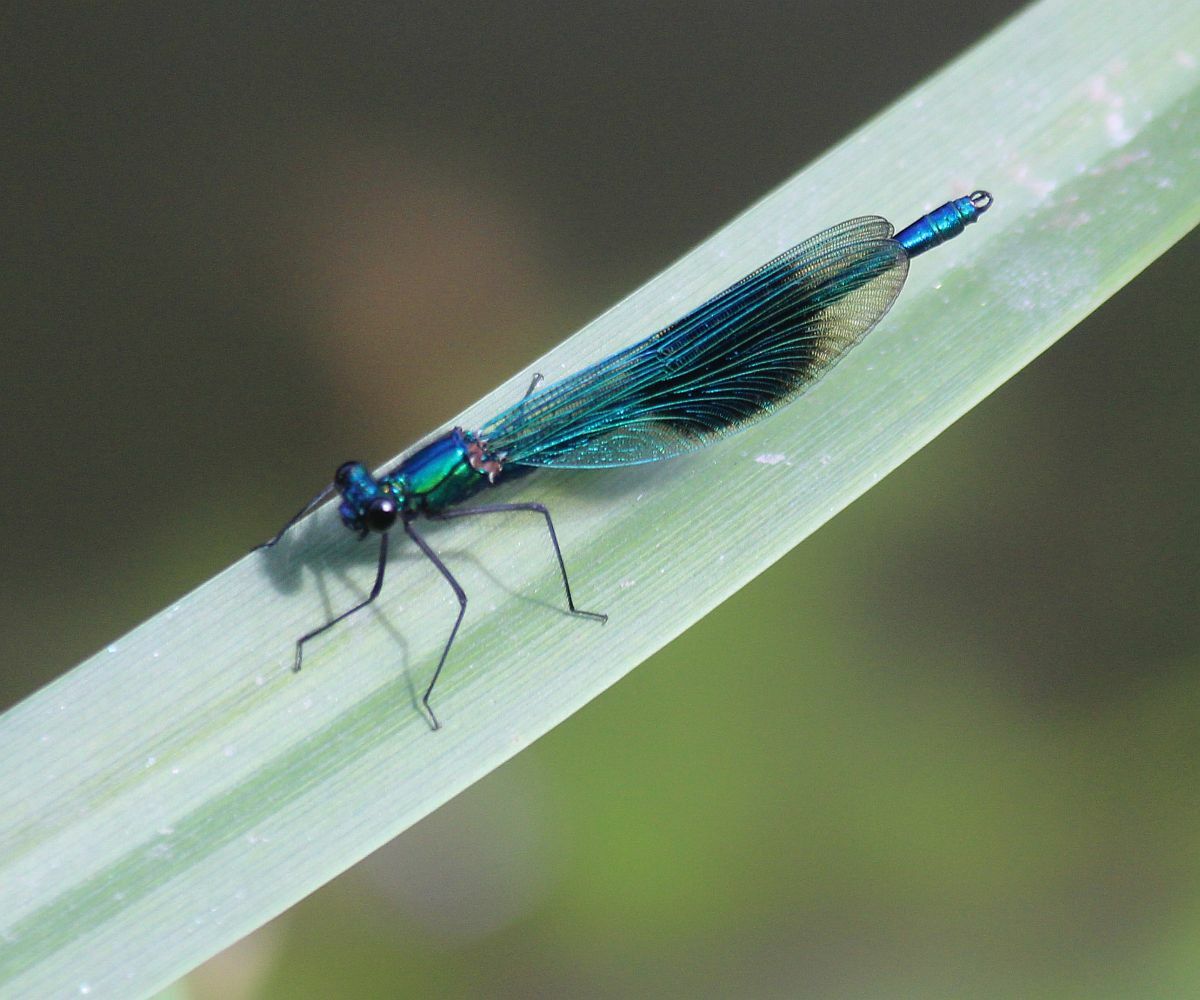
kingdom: Animalia
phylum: Arthropoda
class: Insecta
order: Odonata
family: Calopterygidae
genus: Calopteryx
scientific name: Calopteryx splendens
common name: Banded demoiselle
